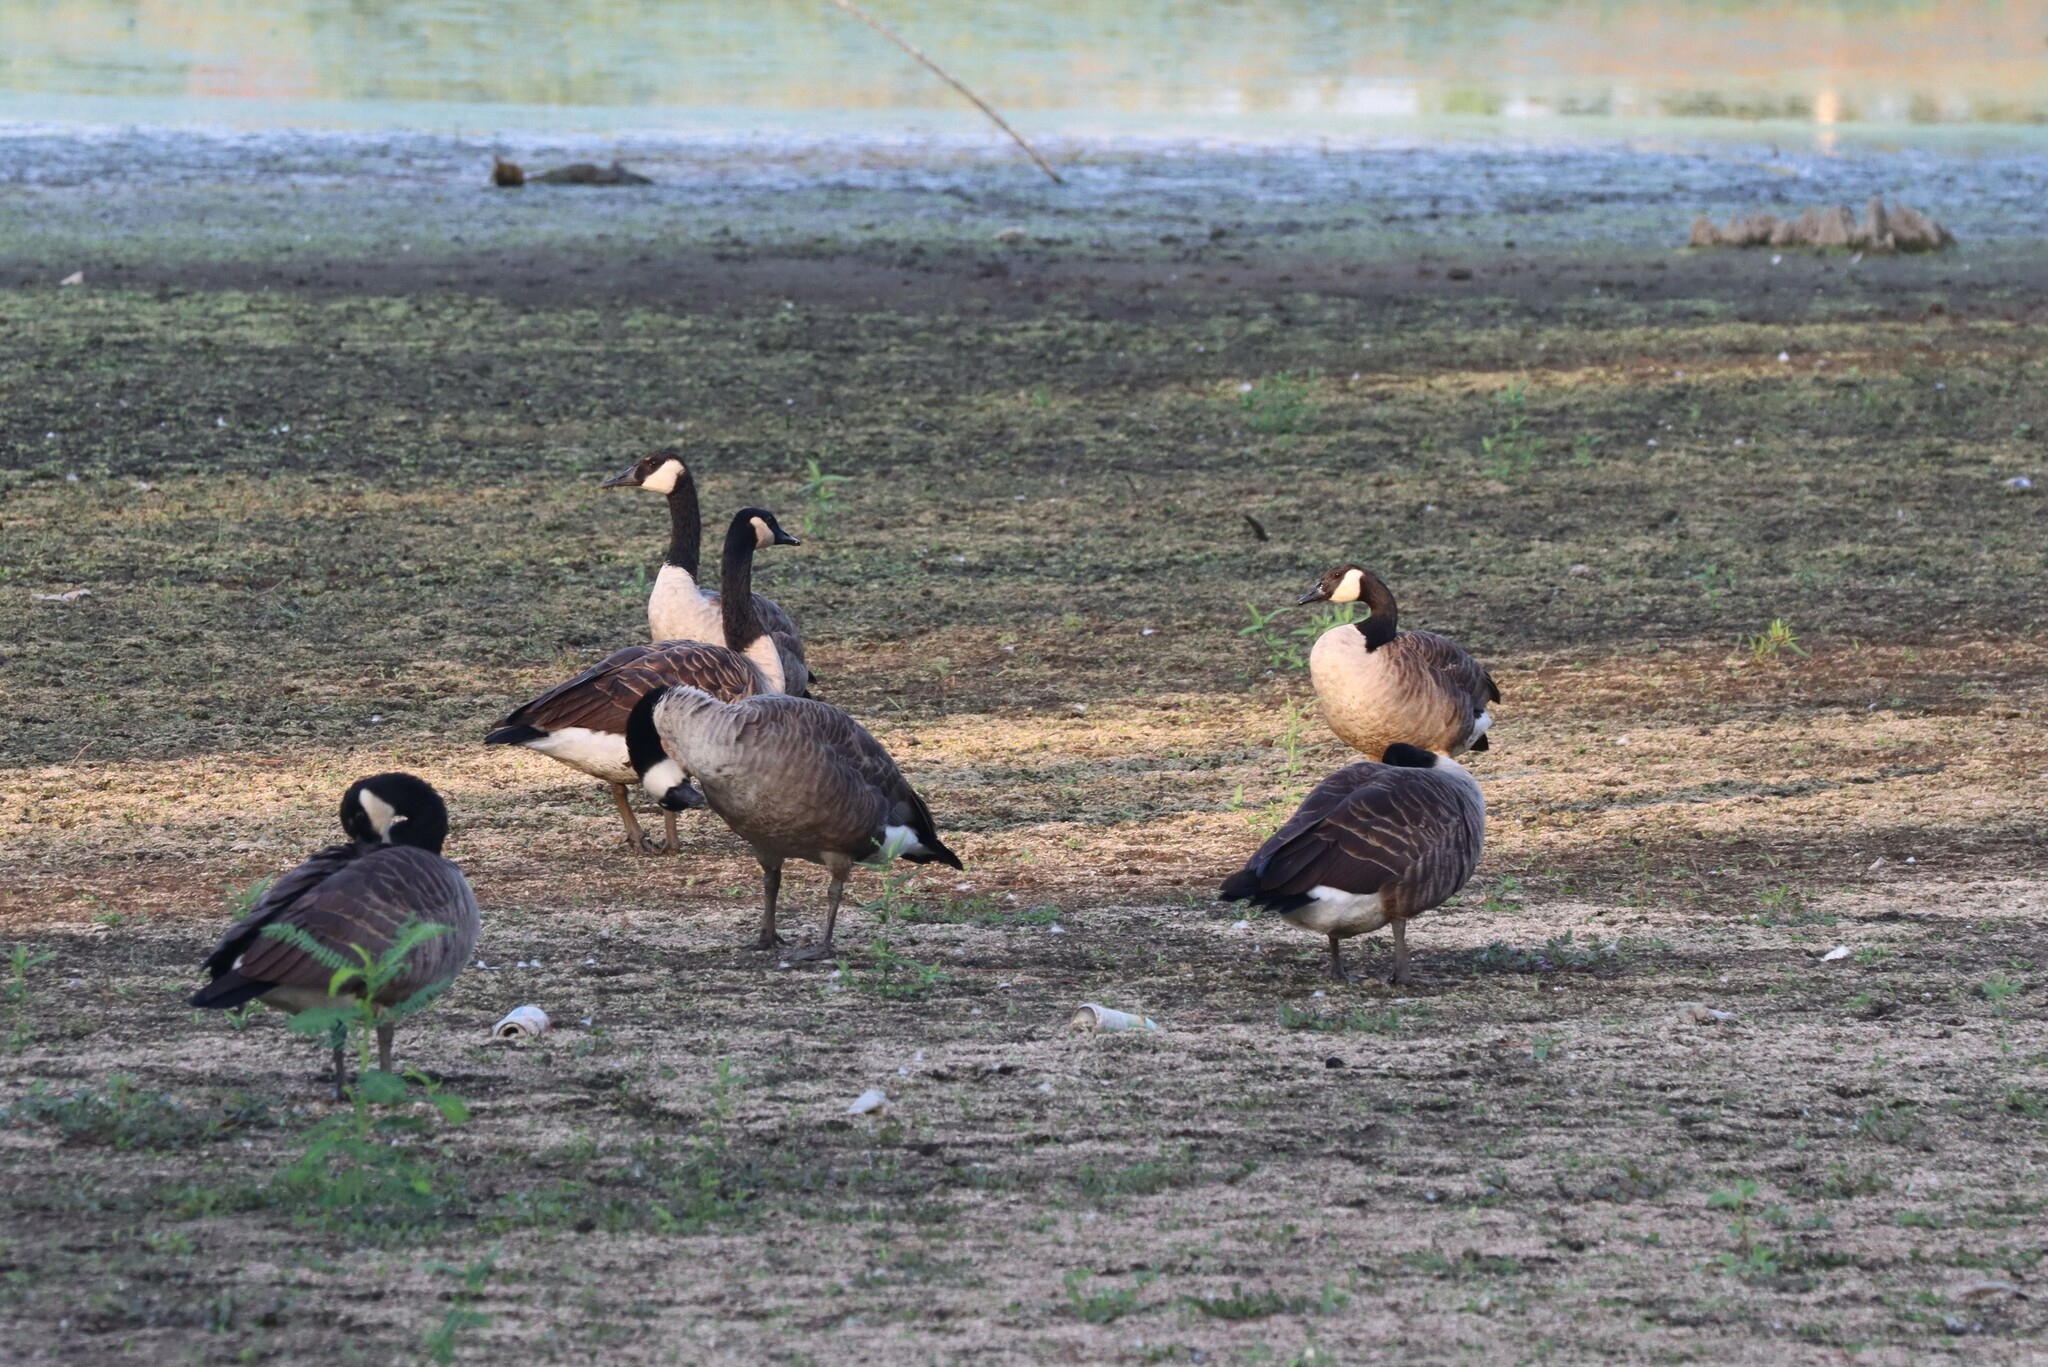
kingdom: Animalia
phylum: Chordata
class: Aves
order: Anseriformes
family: Anatidae
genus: Branta
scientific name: Branta canadensis
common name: Canada goose
